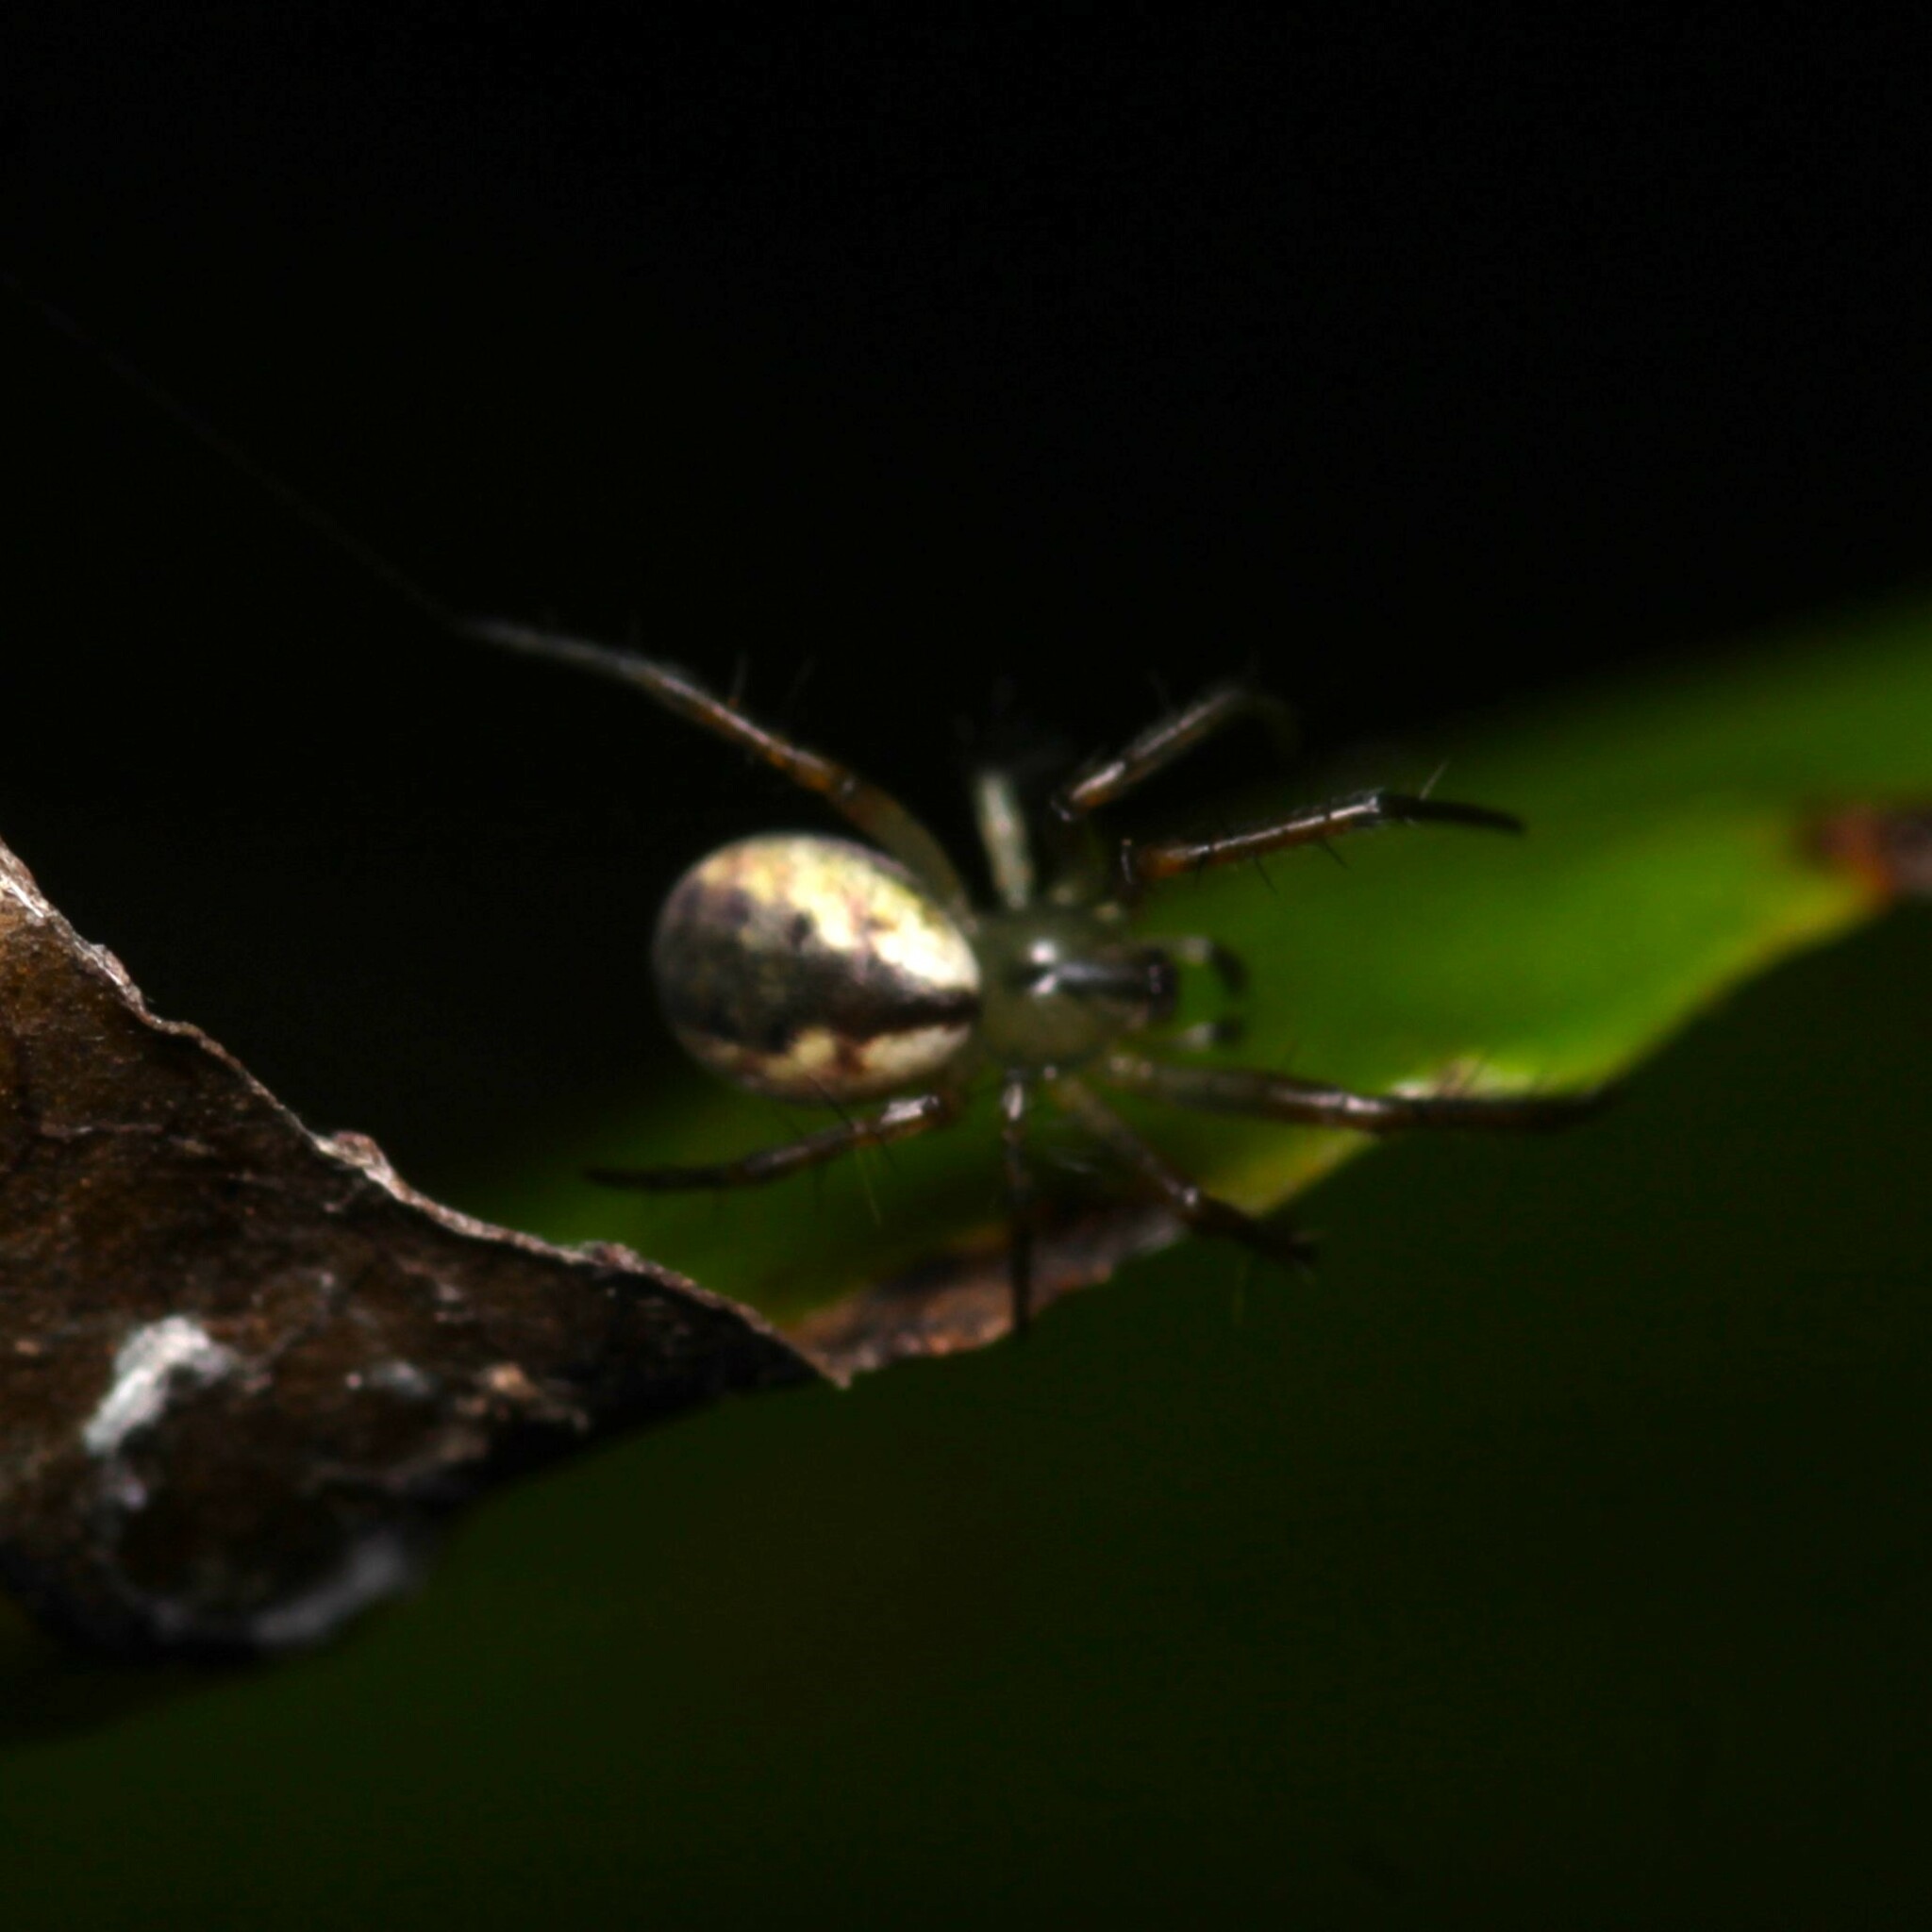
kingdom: Animalia
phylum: Arthropoda
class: Arachnida
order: Araneae
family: Araneidae
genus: Mangora
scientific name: Mangora placida
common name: Tuft-legged orbweaver
